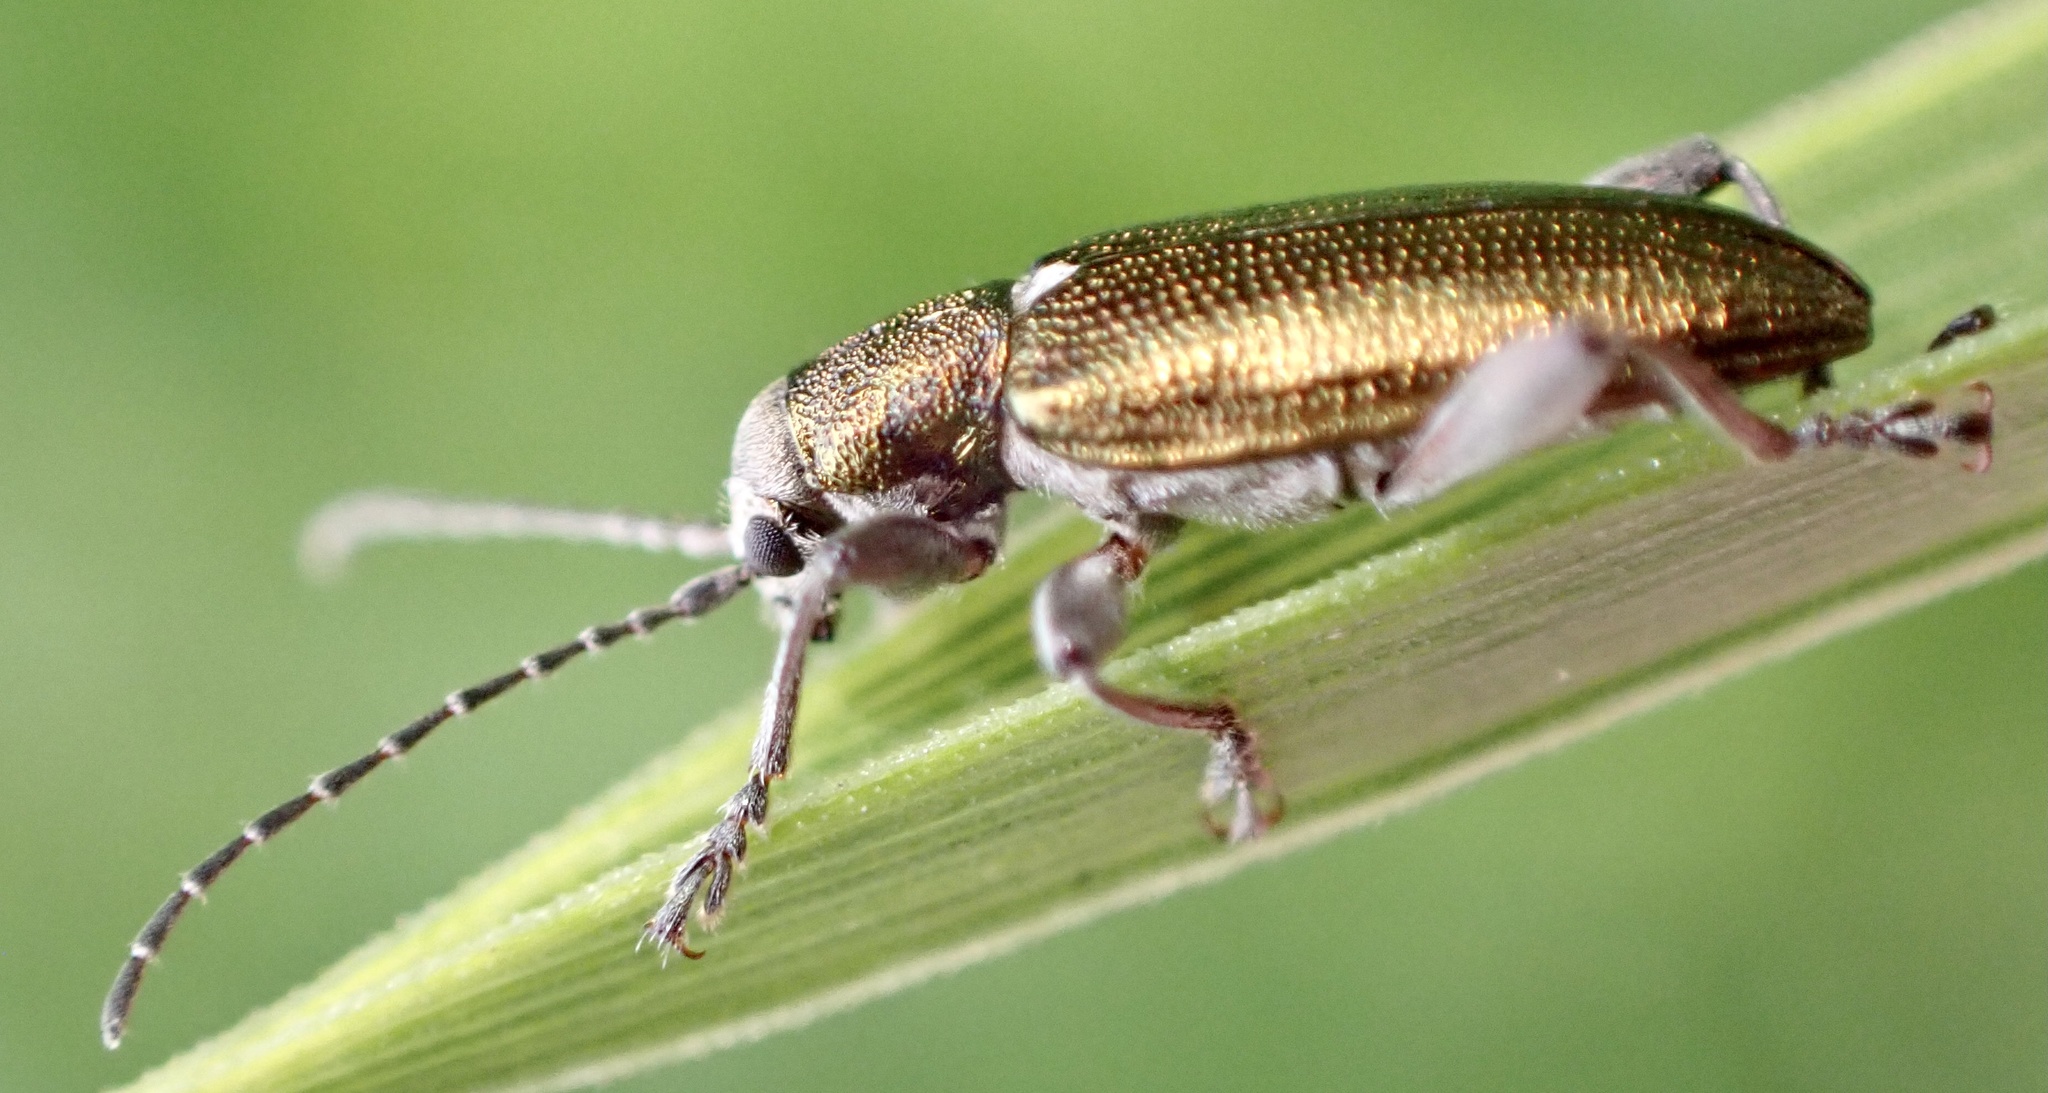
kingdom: Animalia
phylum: Arthropoda
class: Insecta
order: Coleoptera
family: Chrysomelidae
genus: Donacia
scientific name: Donacia semicuprea
